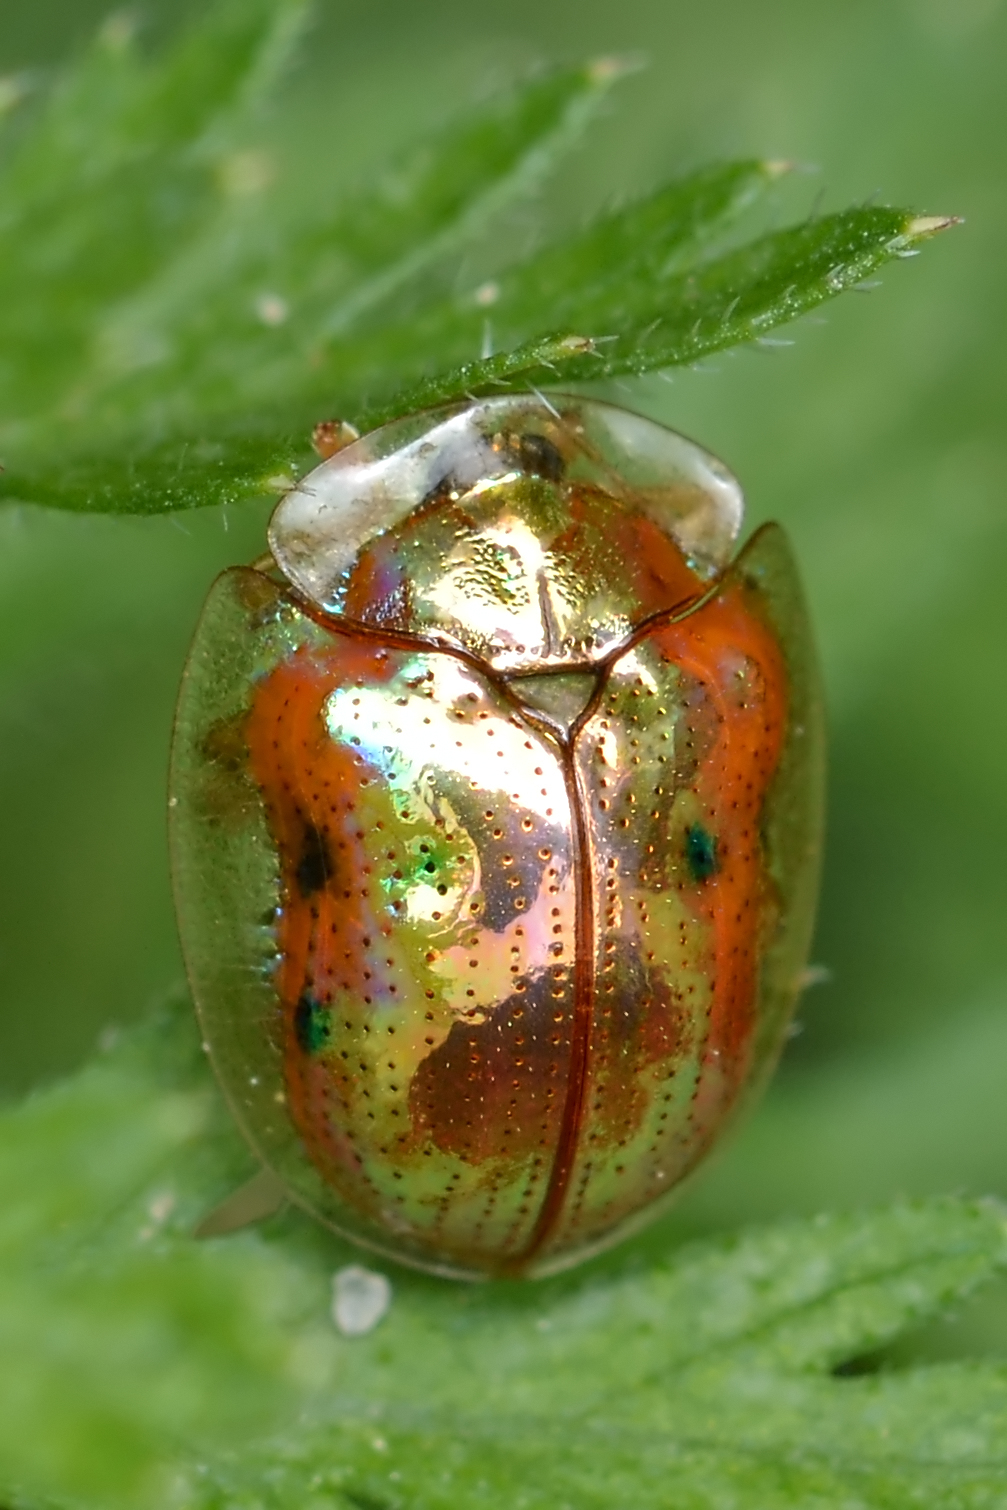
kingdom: Animalia
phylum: Arthropoda
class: Insecta
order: Coleoptera
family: Chrysomelidae
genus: Charidotella
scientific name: Charidotella sexpunctata
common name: Golden tortoise beetle
